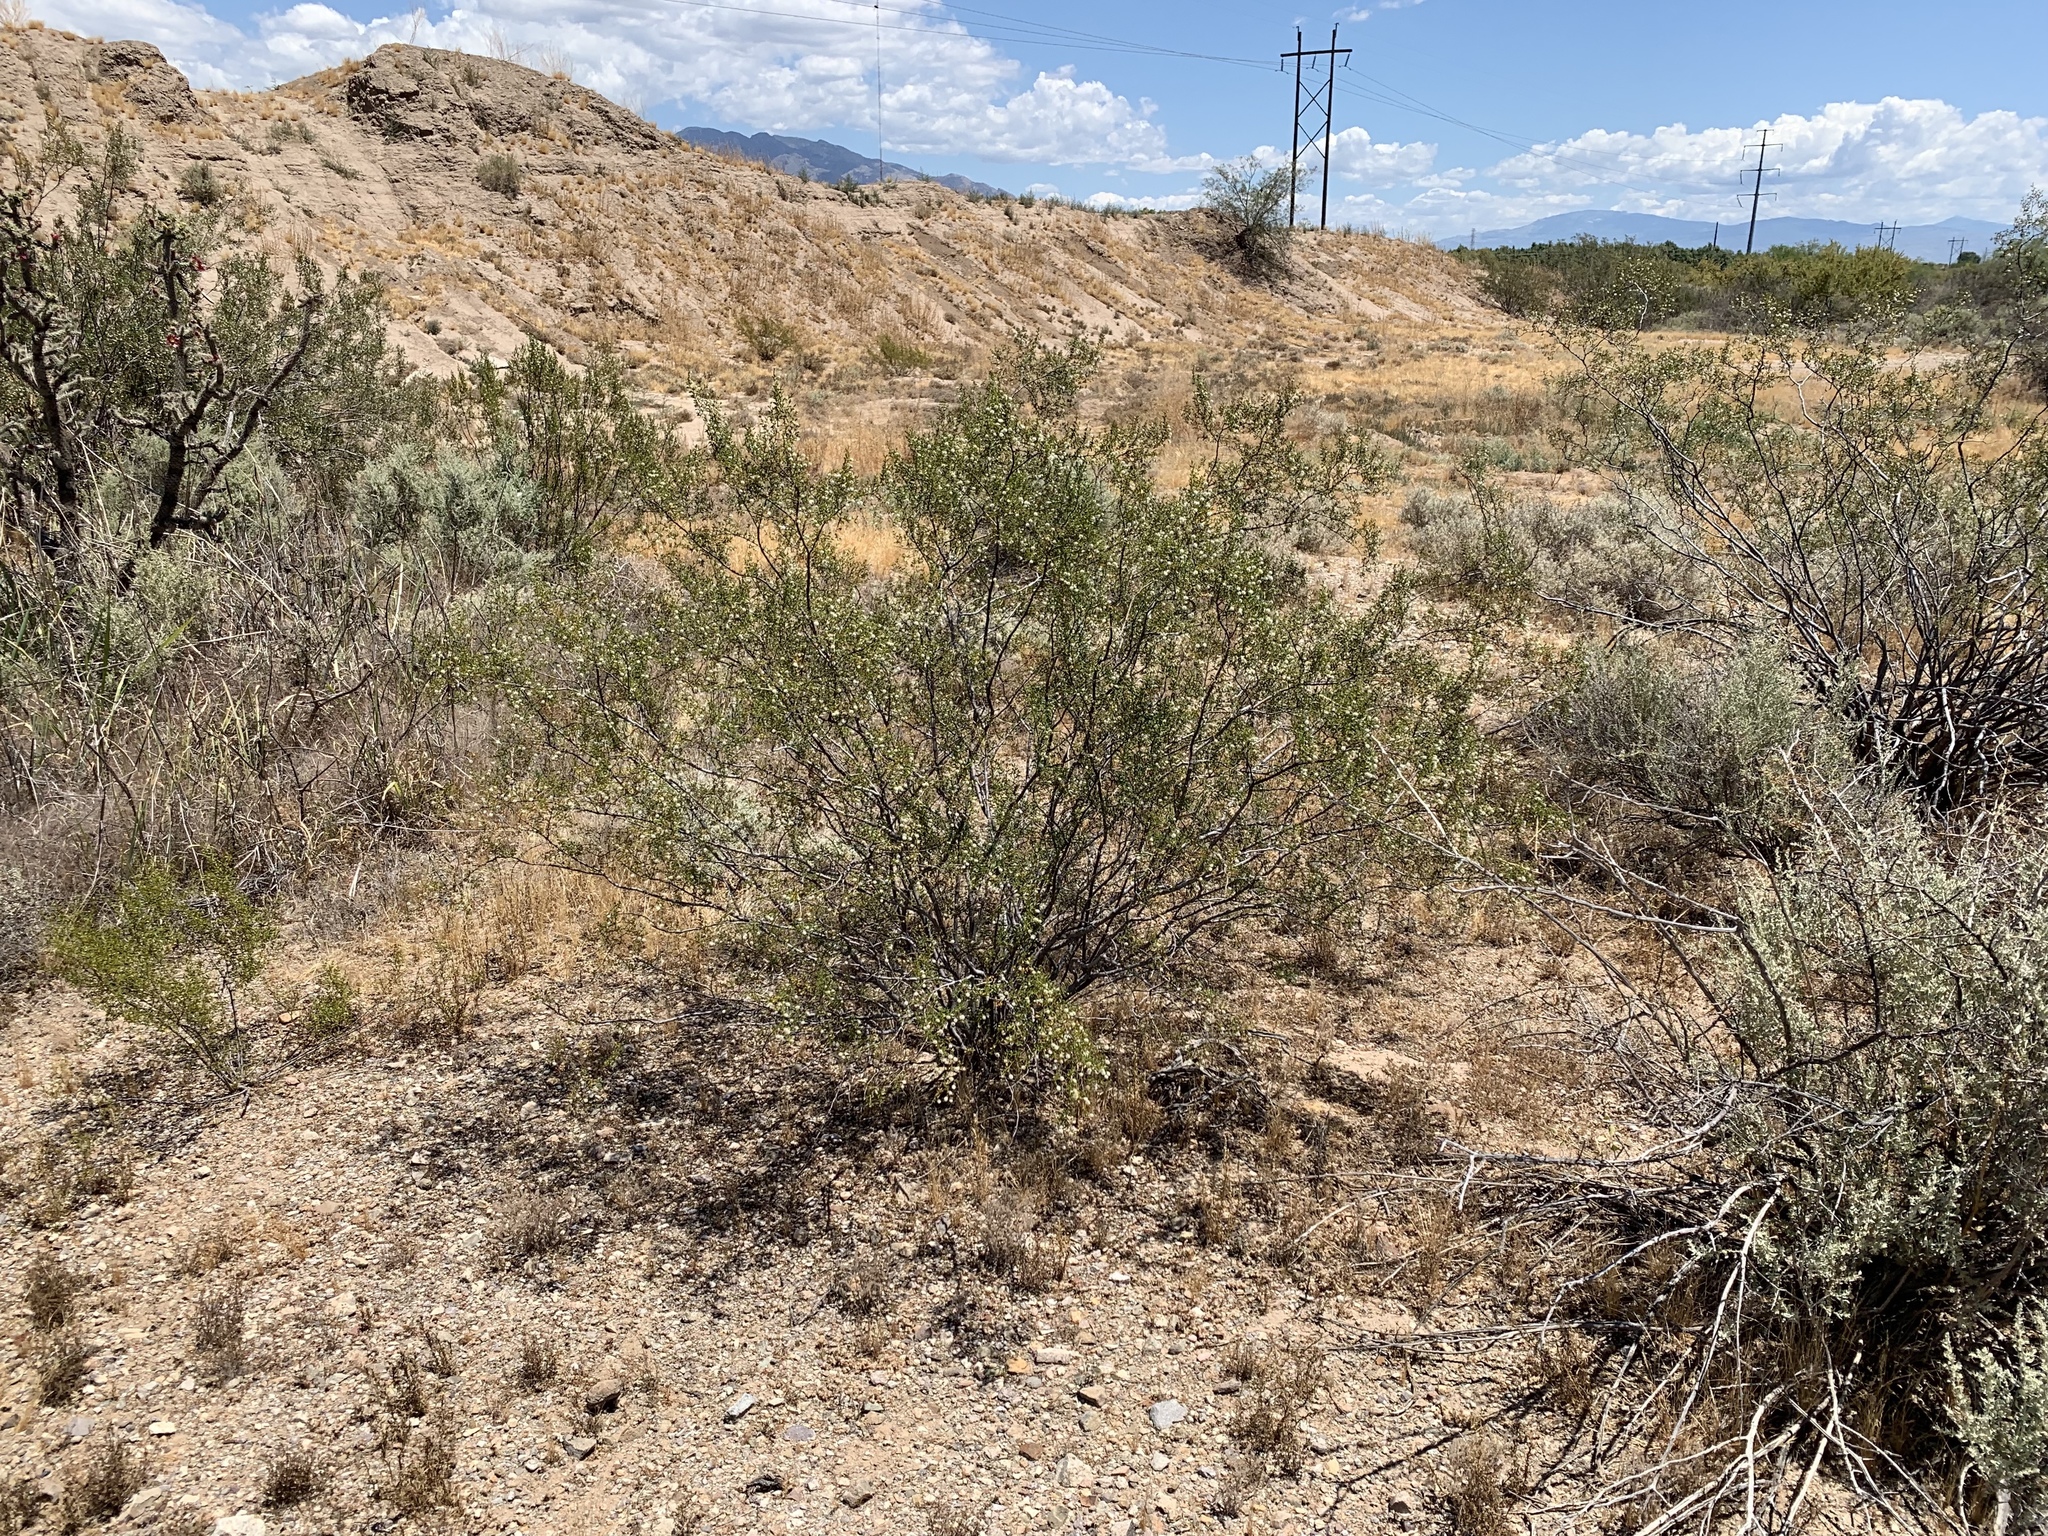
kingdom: Plantae
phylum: Tracheophyta
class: Magnoliopsida
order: Zygophyllales
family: Zygophyllaceae
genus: Larrea
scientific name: Larrea tridentata
